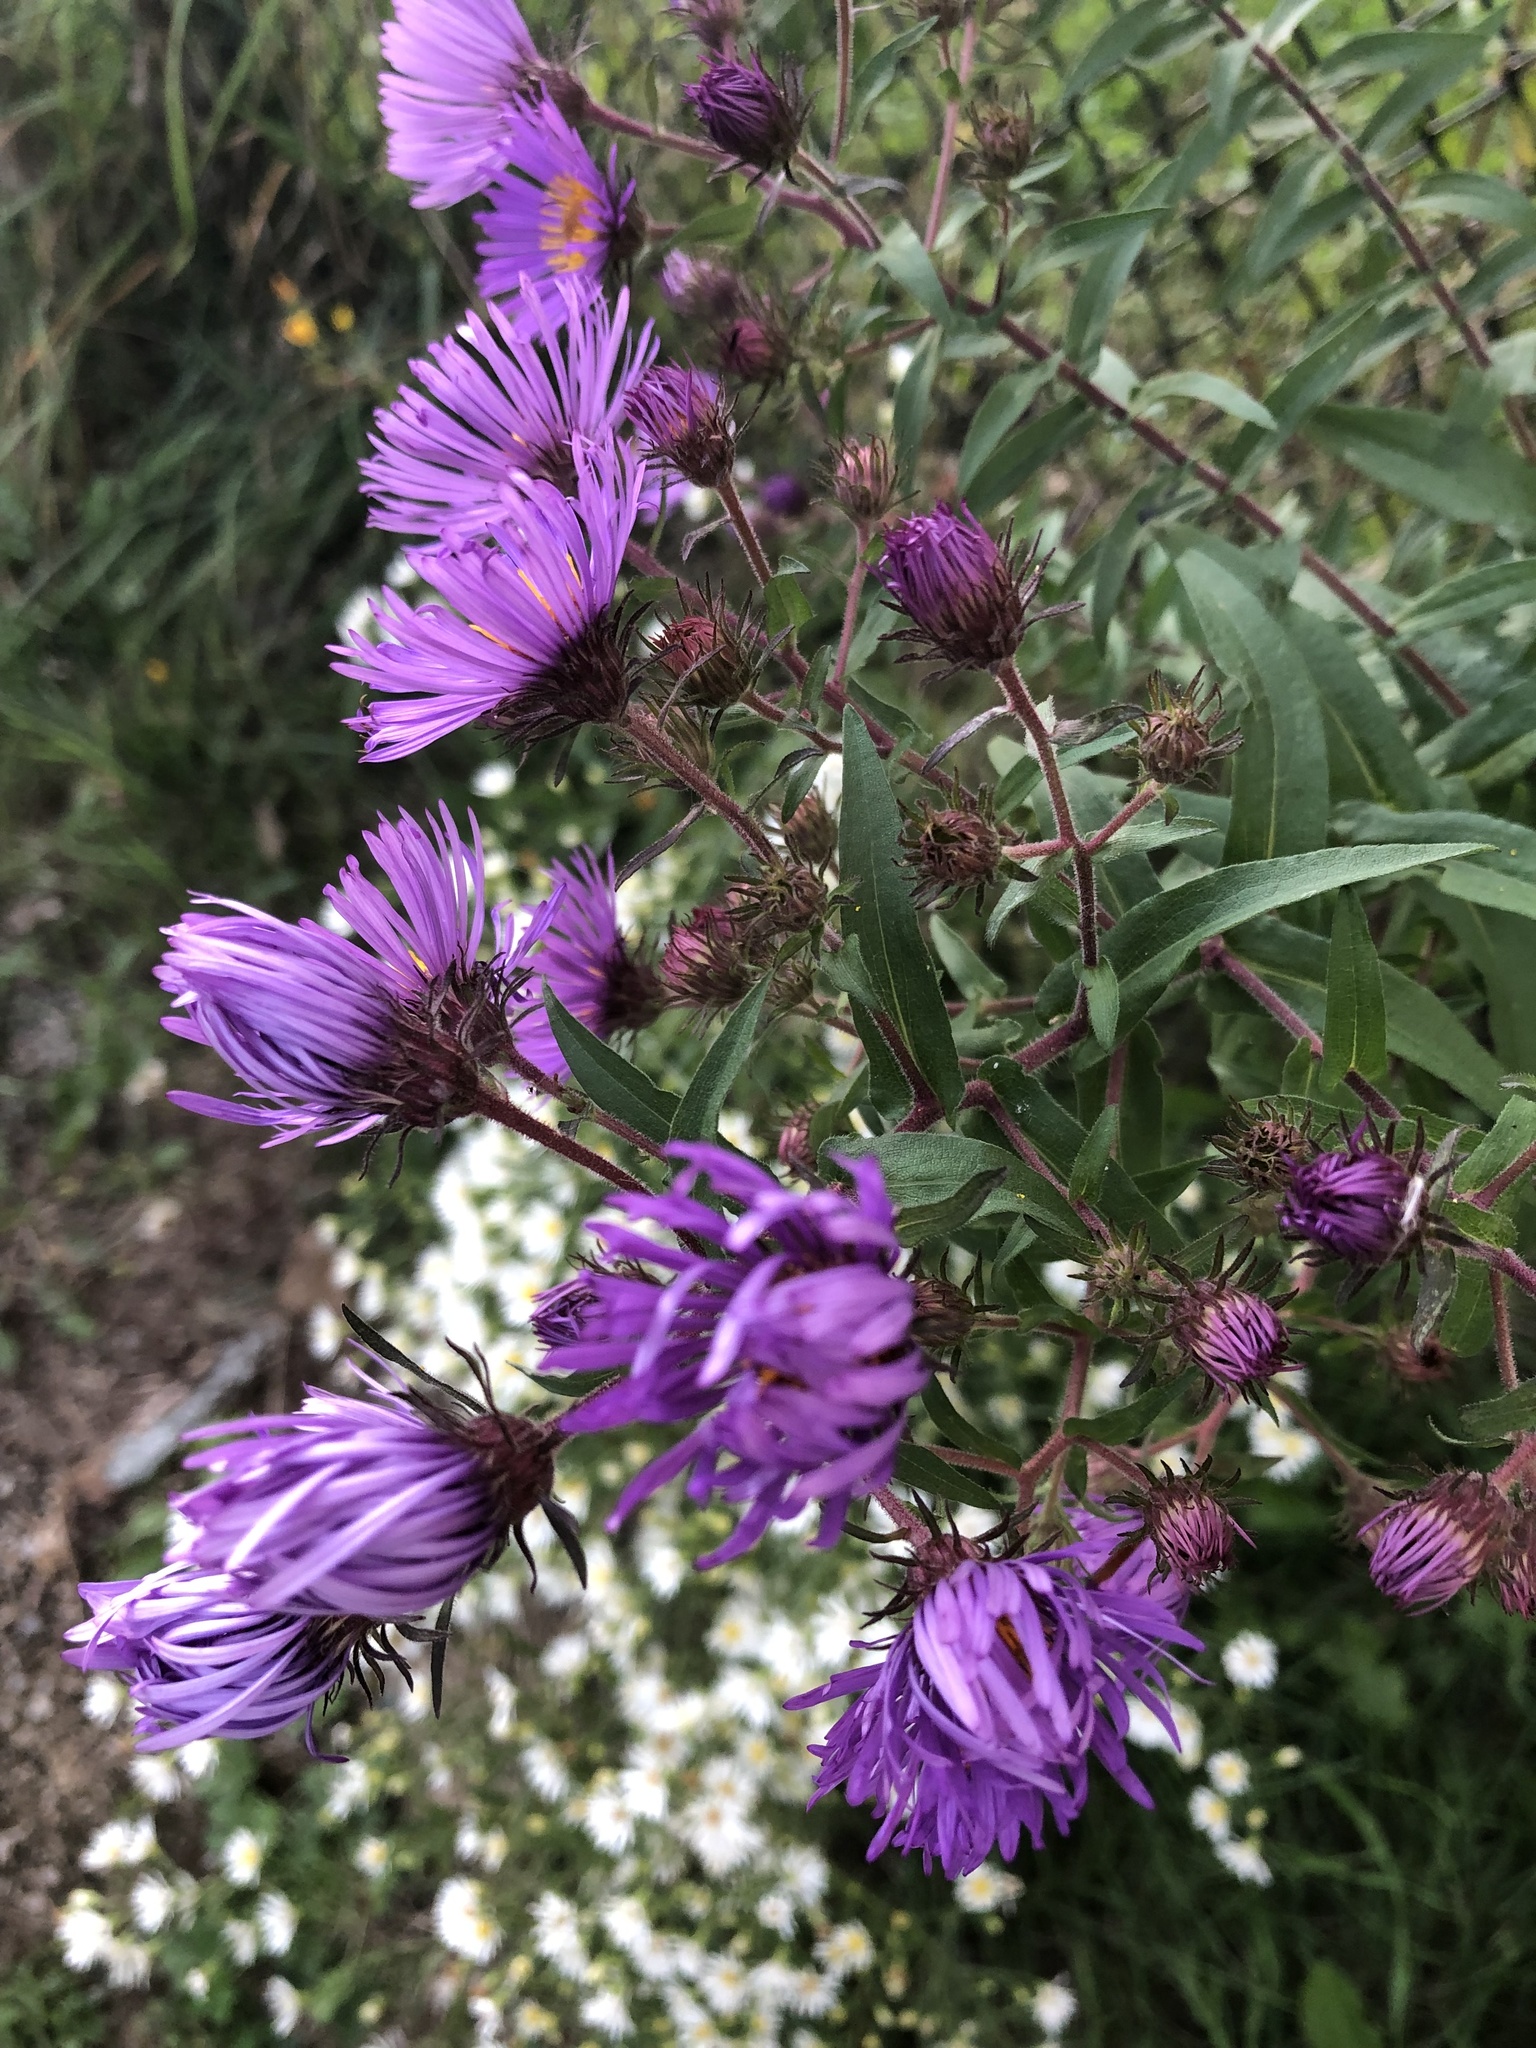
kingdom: Plantae
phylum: Tracheophyta
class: Magnoliopsida
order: Asterales
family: Asteraceae
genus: Symphyotrichum
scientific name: Symphyotrichum novae-angliae
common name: Michaelmas daisy
